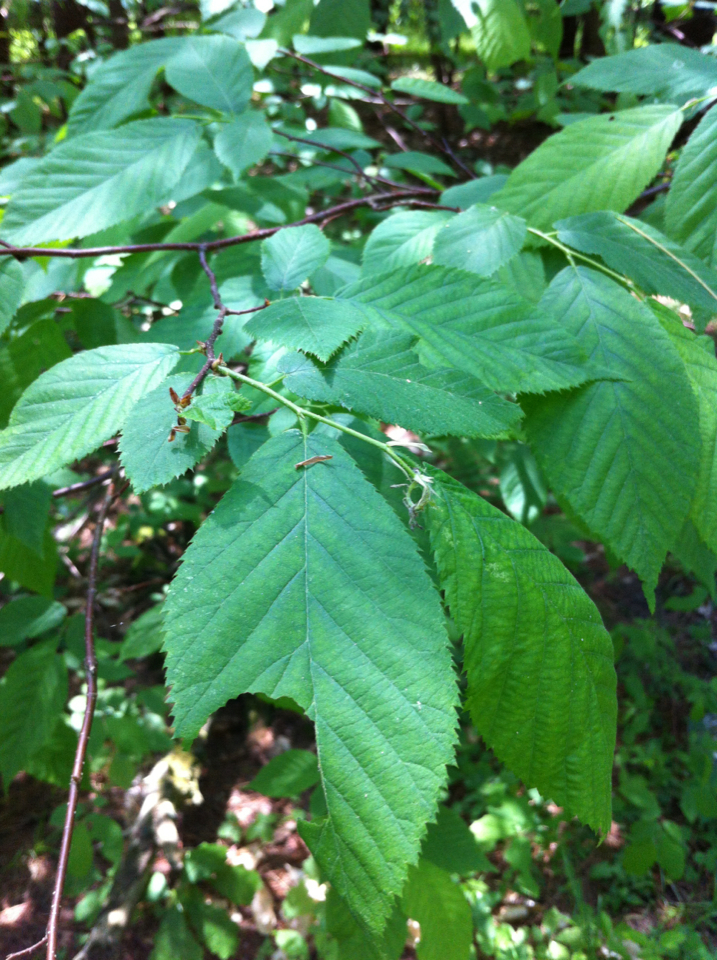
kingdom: Plantae
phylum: Tracheophyta
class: Magnoliopsida
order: Fagales
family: Fagaceae
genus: Fagus
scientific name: Fagus grandifolia
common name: American beech
